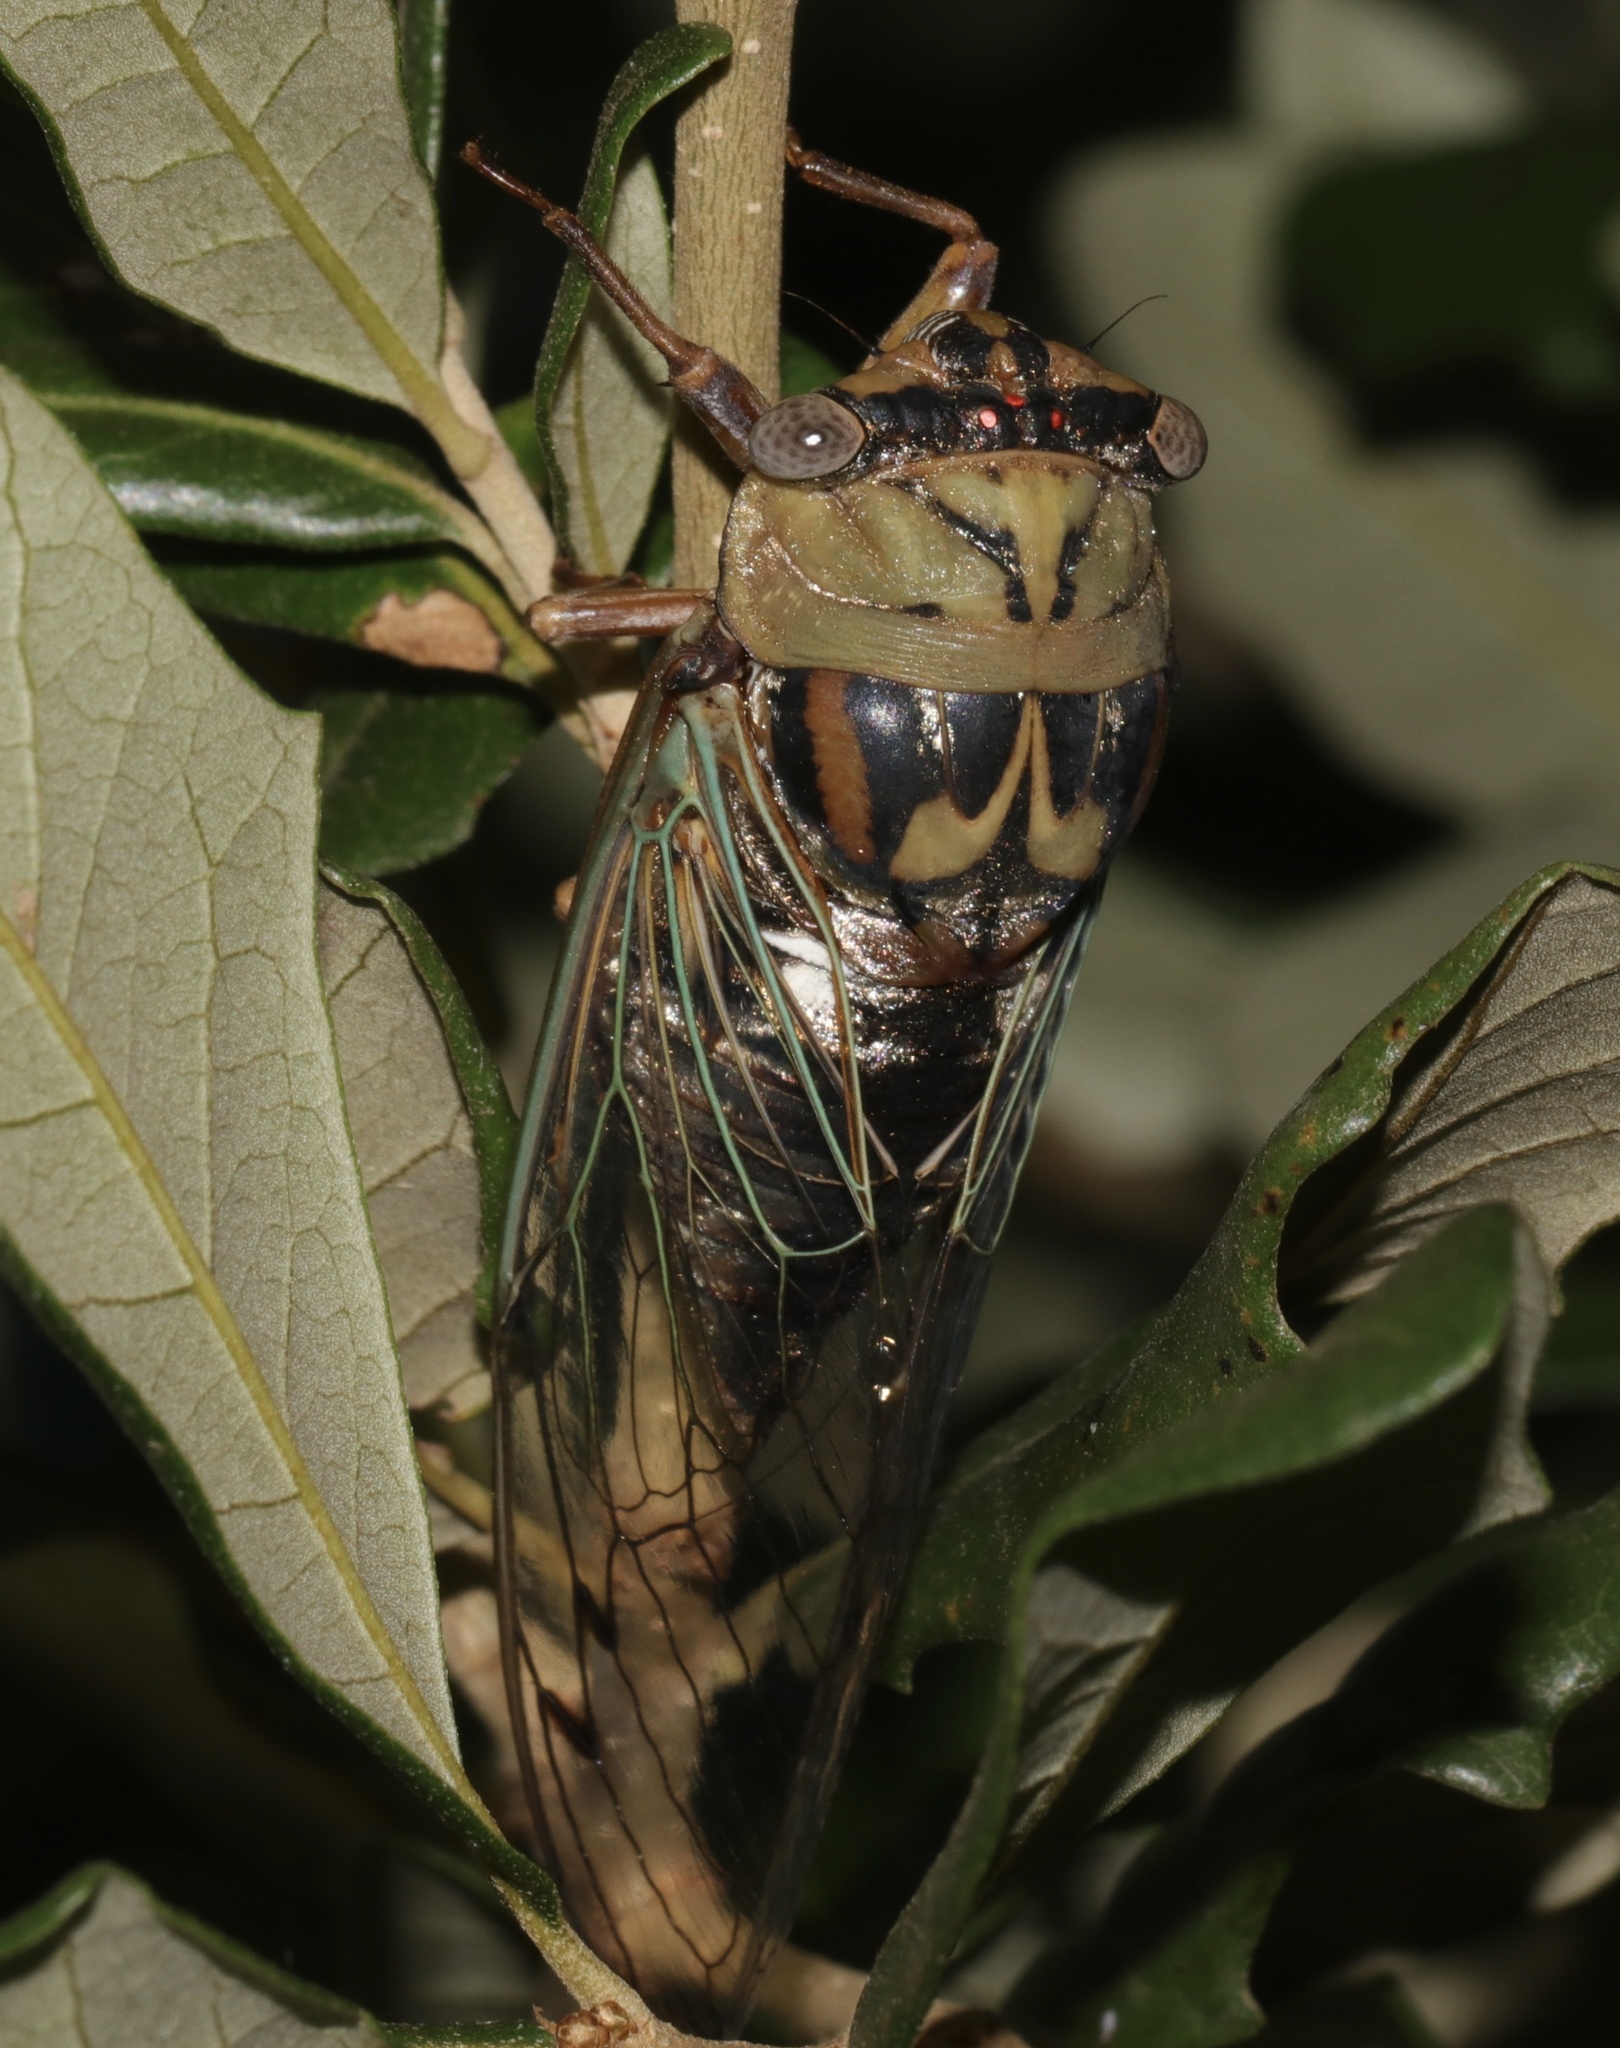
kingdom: Animalia
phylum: Arthropoda
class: Insecta
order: Hemiptera
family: Cicadidae
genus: Megatibicen
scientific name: Megatibicen resh
